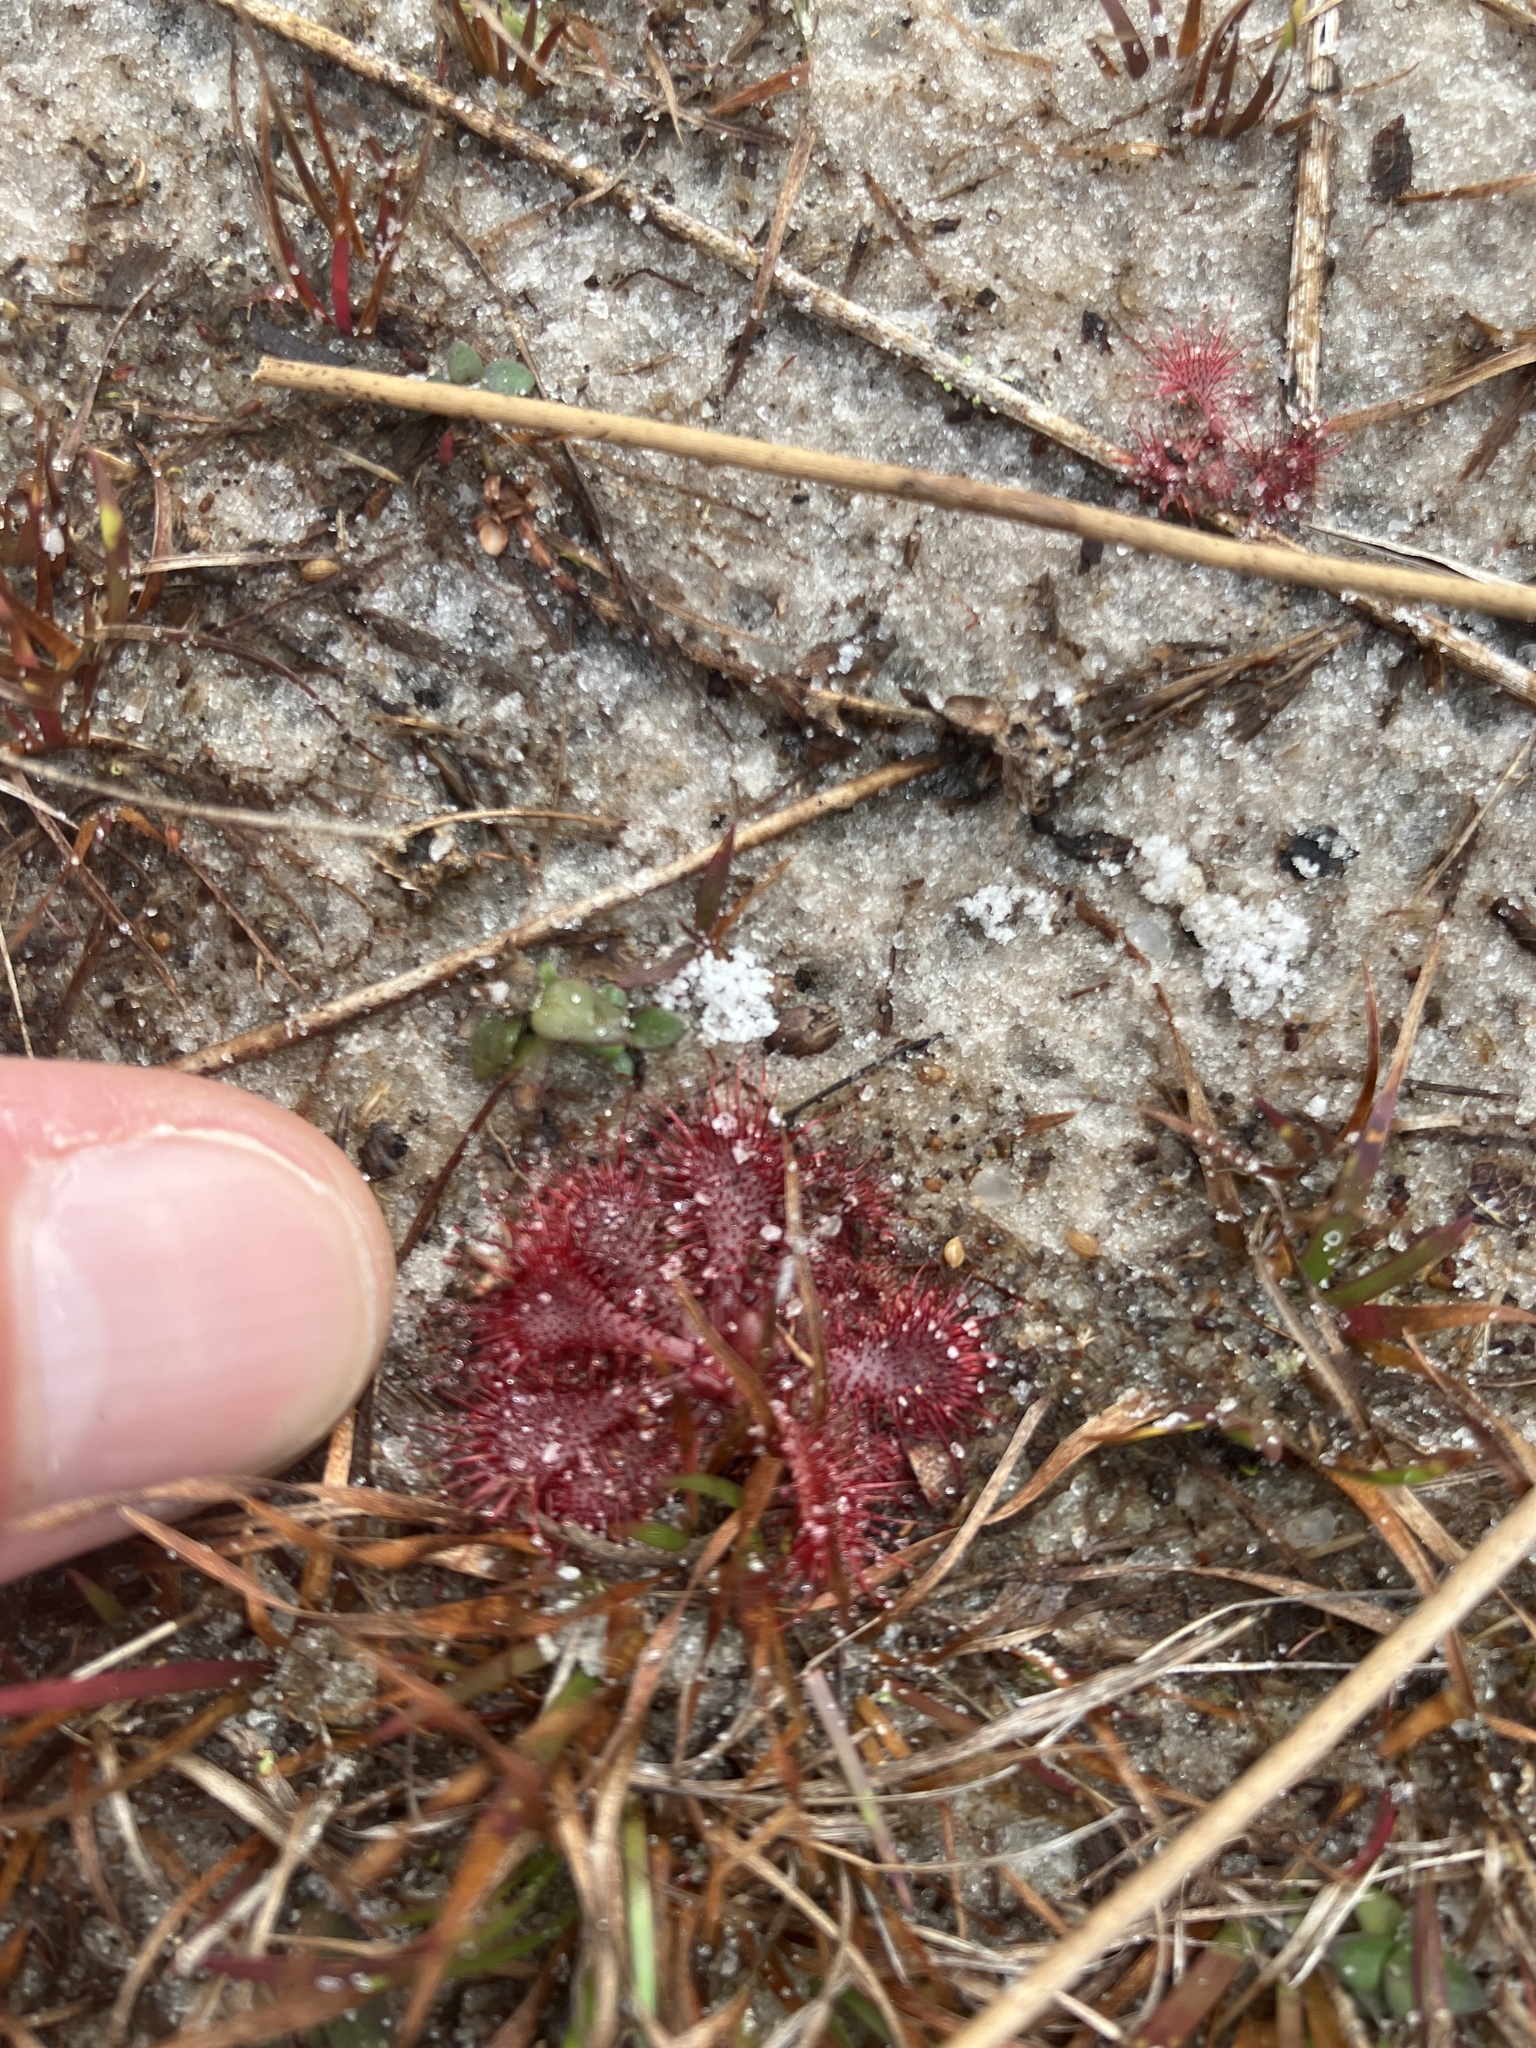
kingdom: Plantae
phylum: Tracheophyta
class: Magnoliopsida
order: Caryophyllales
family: Droseraceae
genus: Drosera
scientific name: Drosera brevifolia
